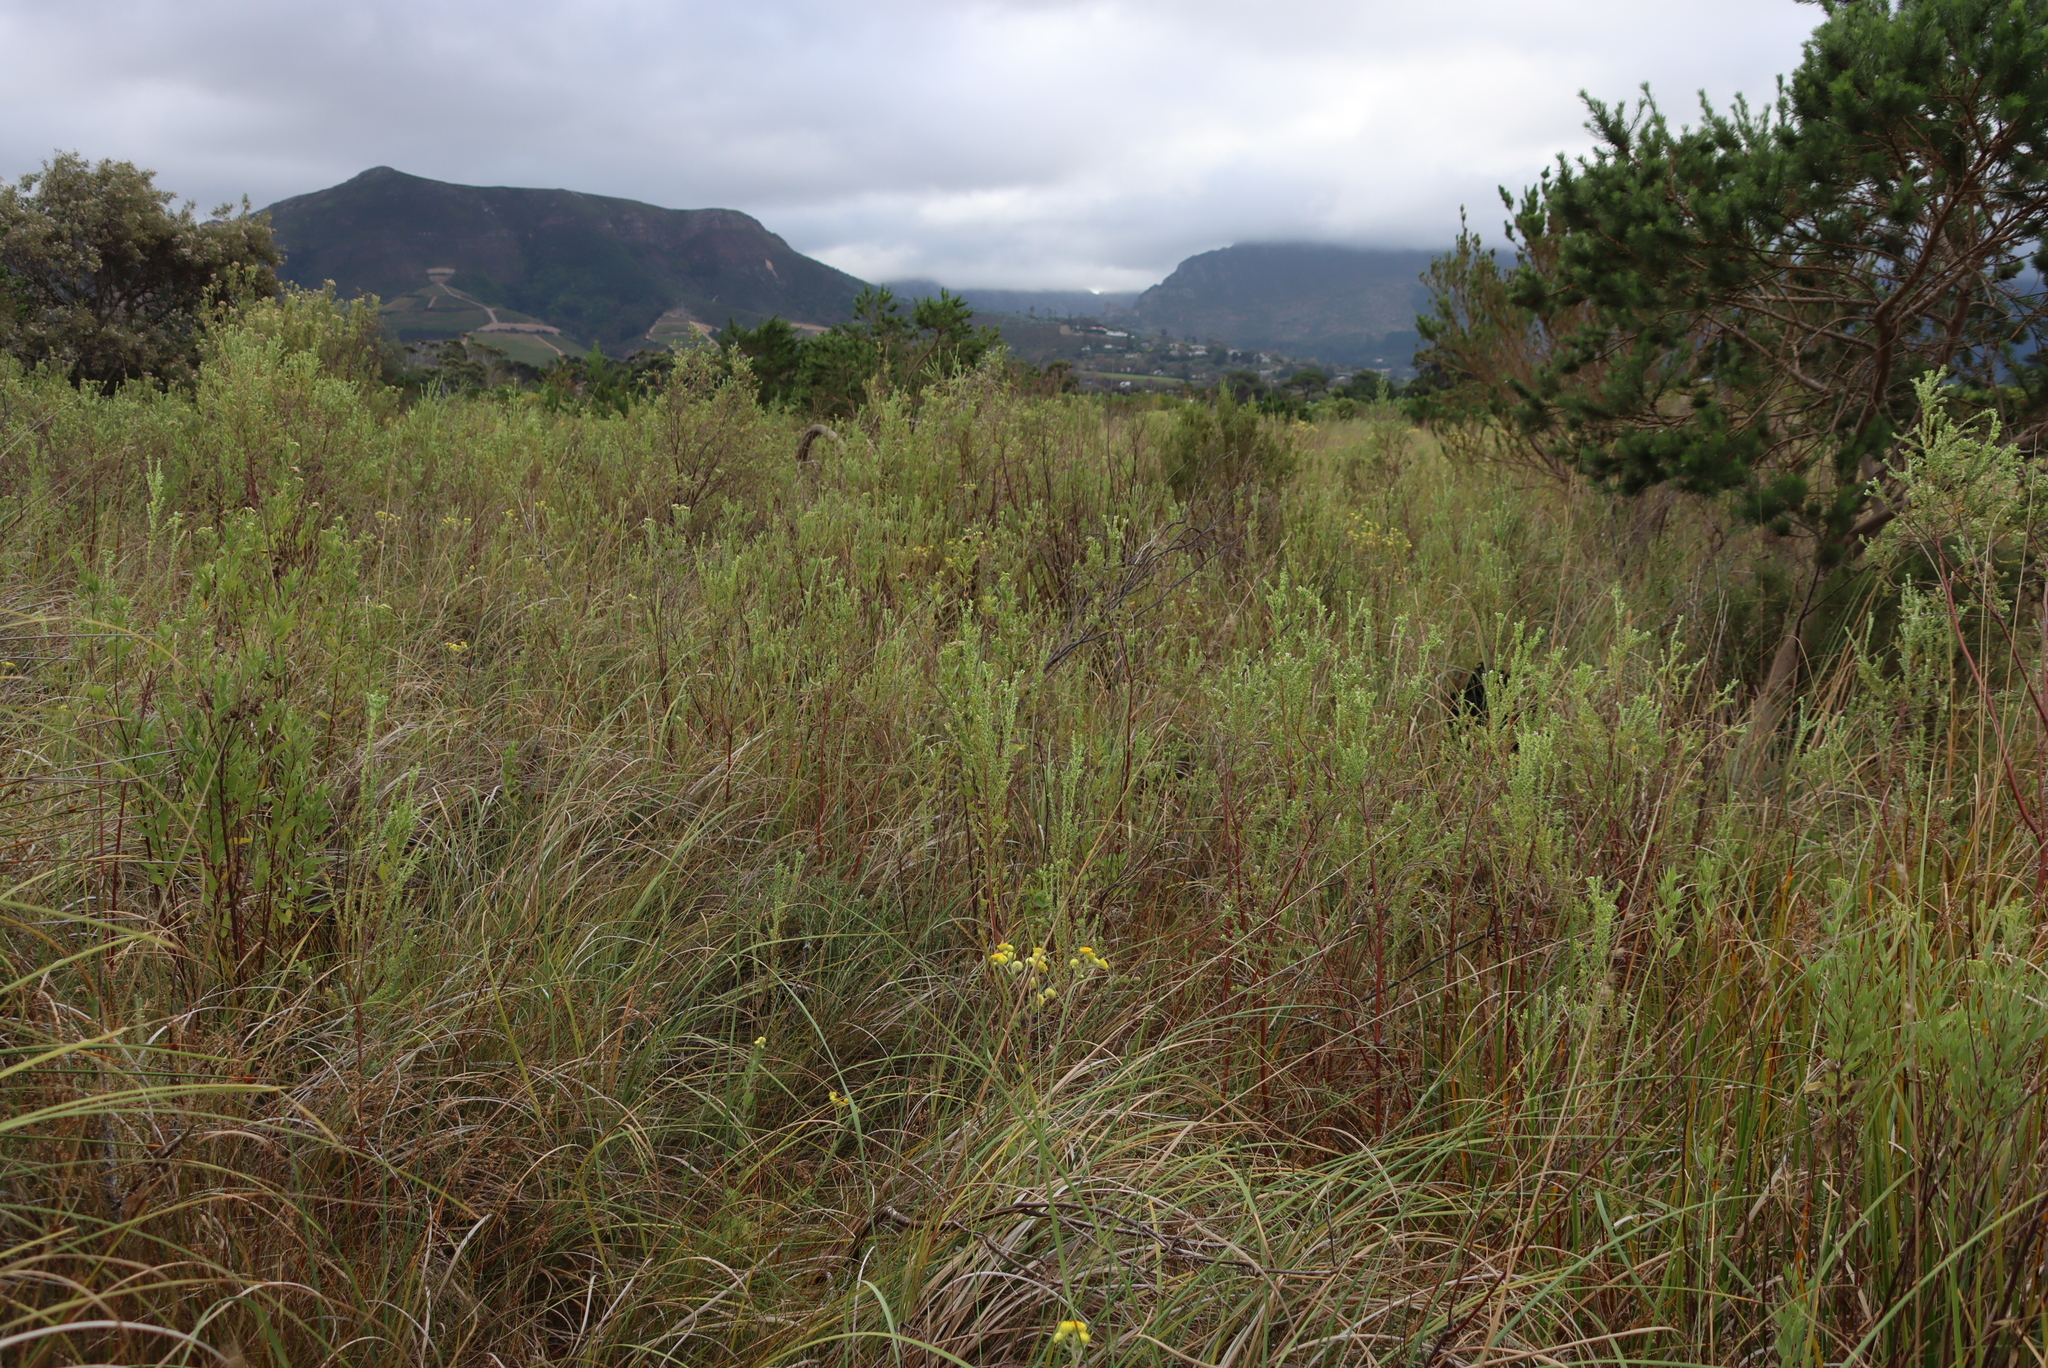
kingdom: Plantae
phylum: Tracheophyta
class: Magnoliopsida
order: Malvales
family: Thymelaeaceae
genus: Gnidia
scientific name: Gnidia sericea
